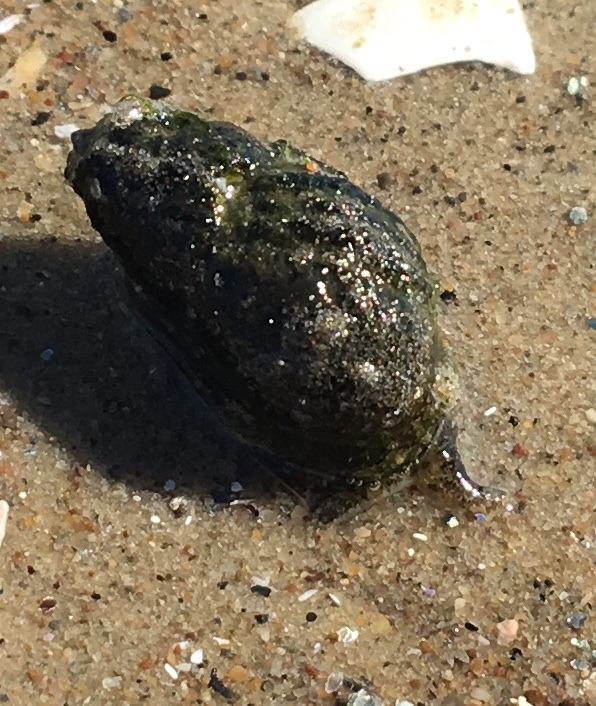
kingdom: Animalia
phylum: Mollusca
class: Gastropoda
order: Neogastropoda
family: Nassariidae
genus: Ilyanassa
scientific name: Ilyanassa obsoleta
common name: Eastern mudsnail
